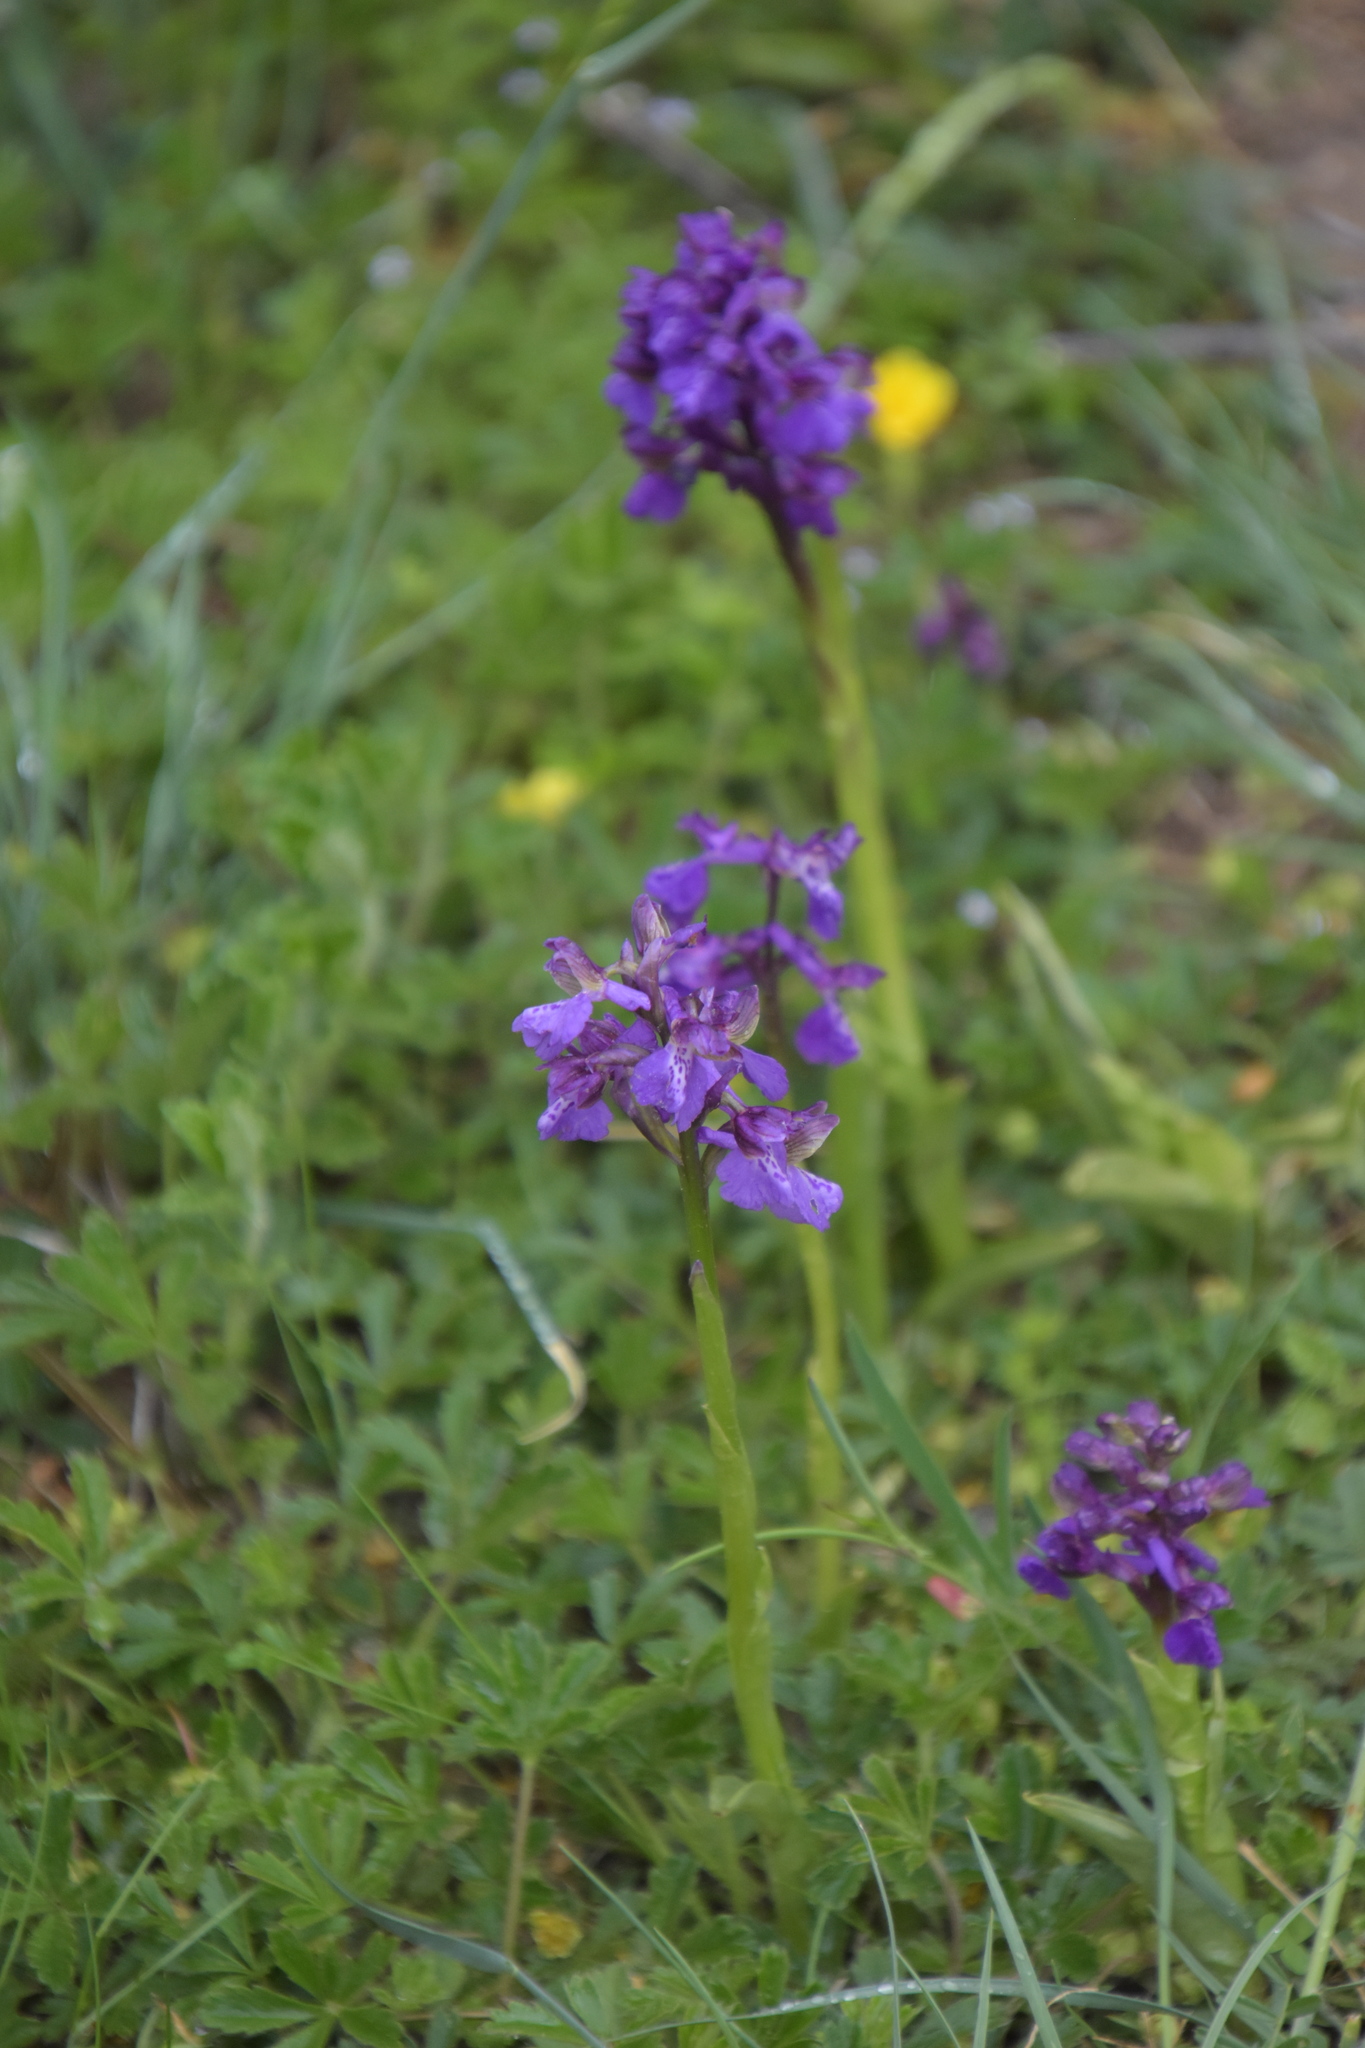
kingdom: Plantae
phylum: Tracheophyta
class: Liliopsida
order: Asparagales
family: Orchidaceae
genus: Anacamptis
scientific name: Anacamptis morio
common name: Green-winged orchid
